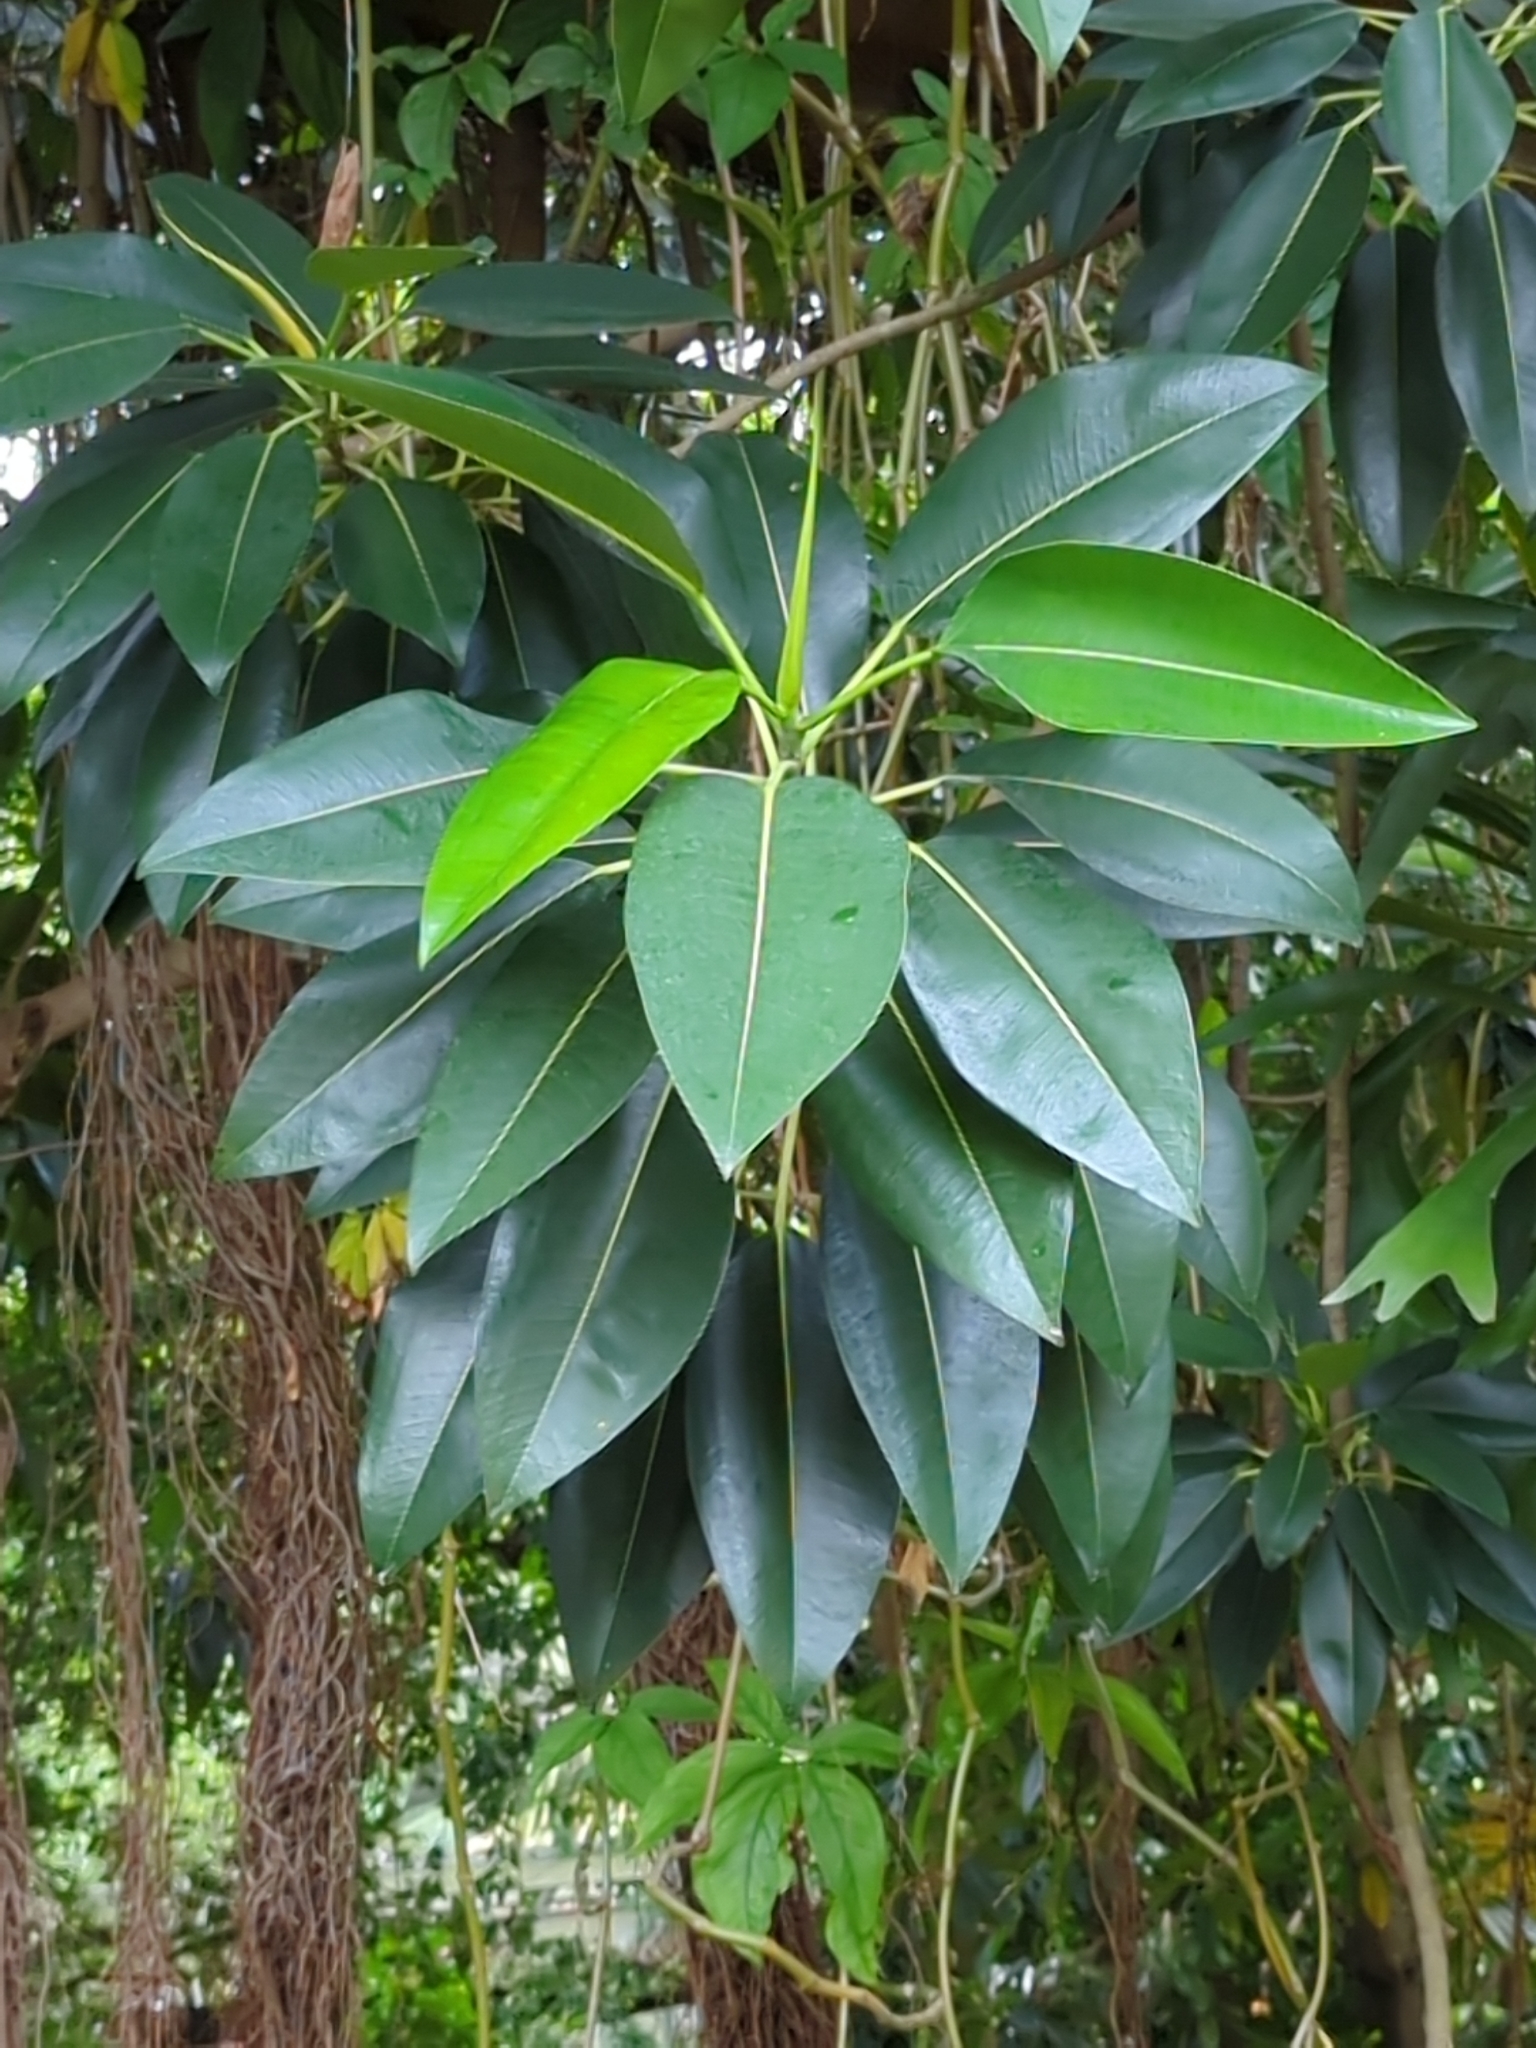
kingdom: Plantae
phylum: Tracheophyta
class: Magnoliopsida
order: Rosales
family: Moraceae
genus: Ficus
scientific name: Ficus elastica
